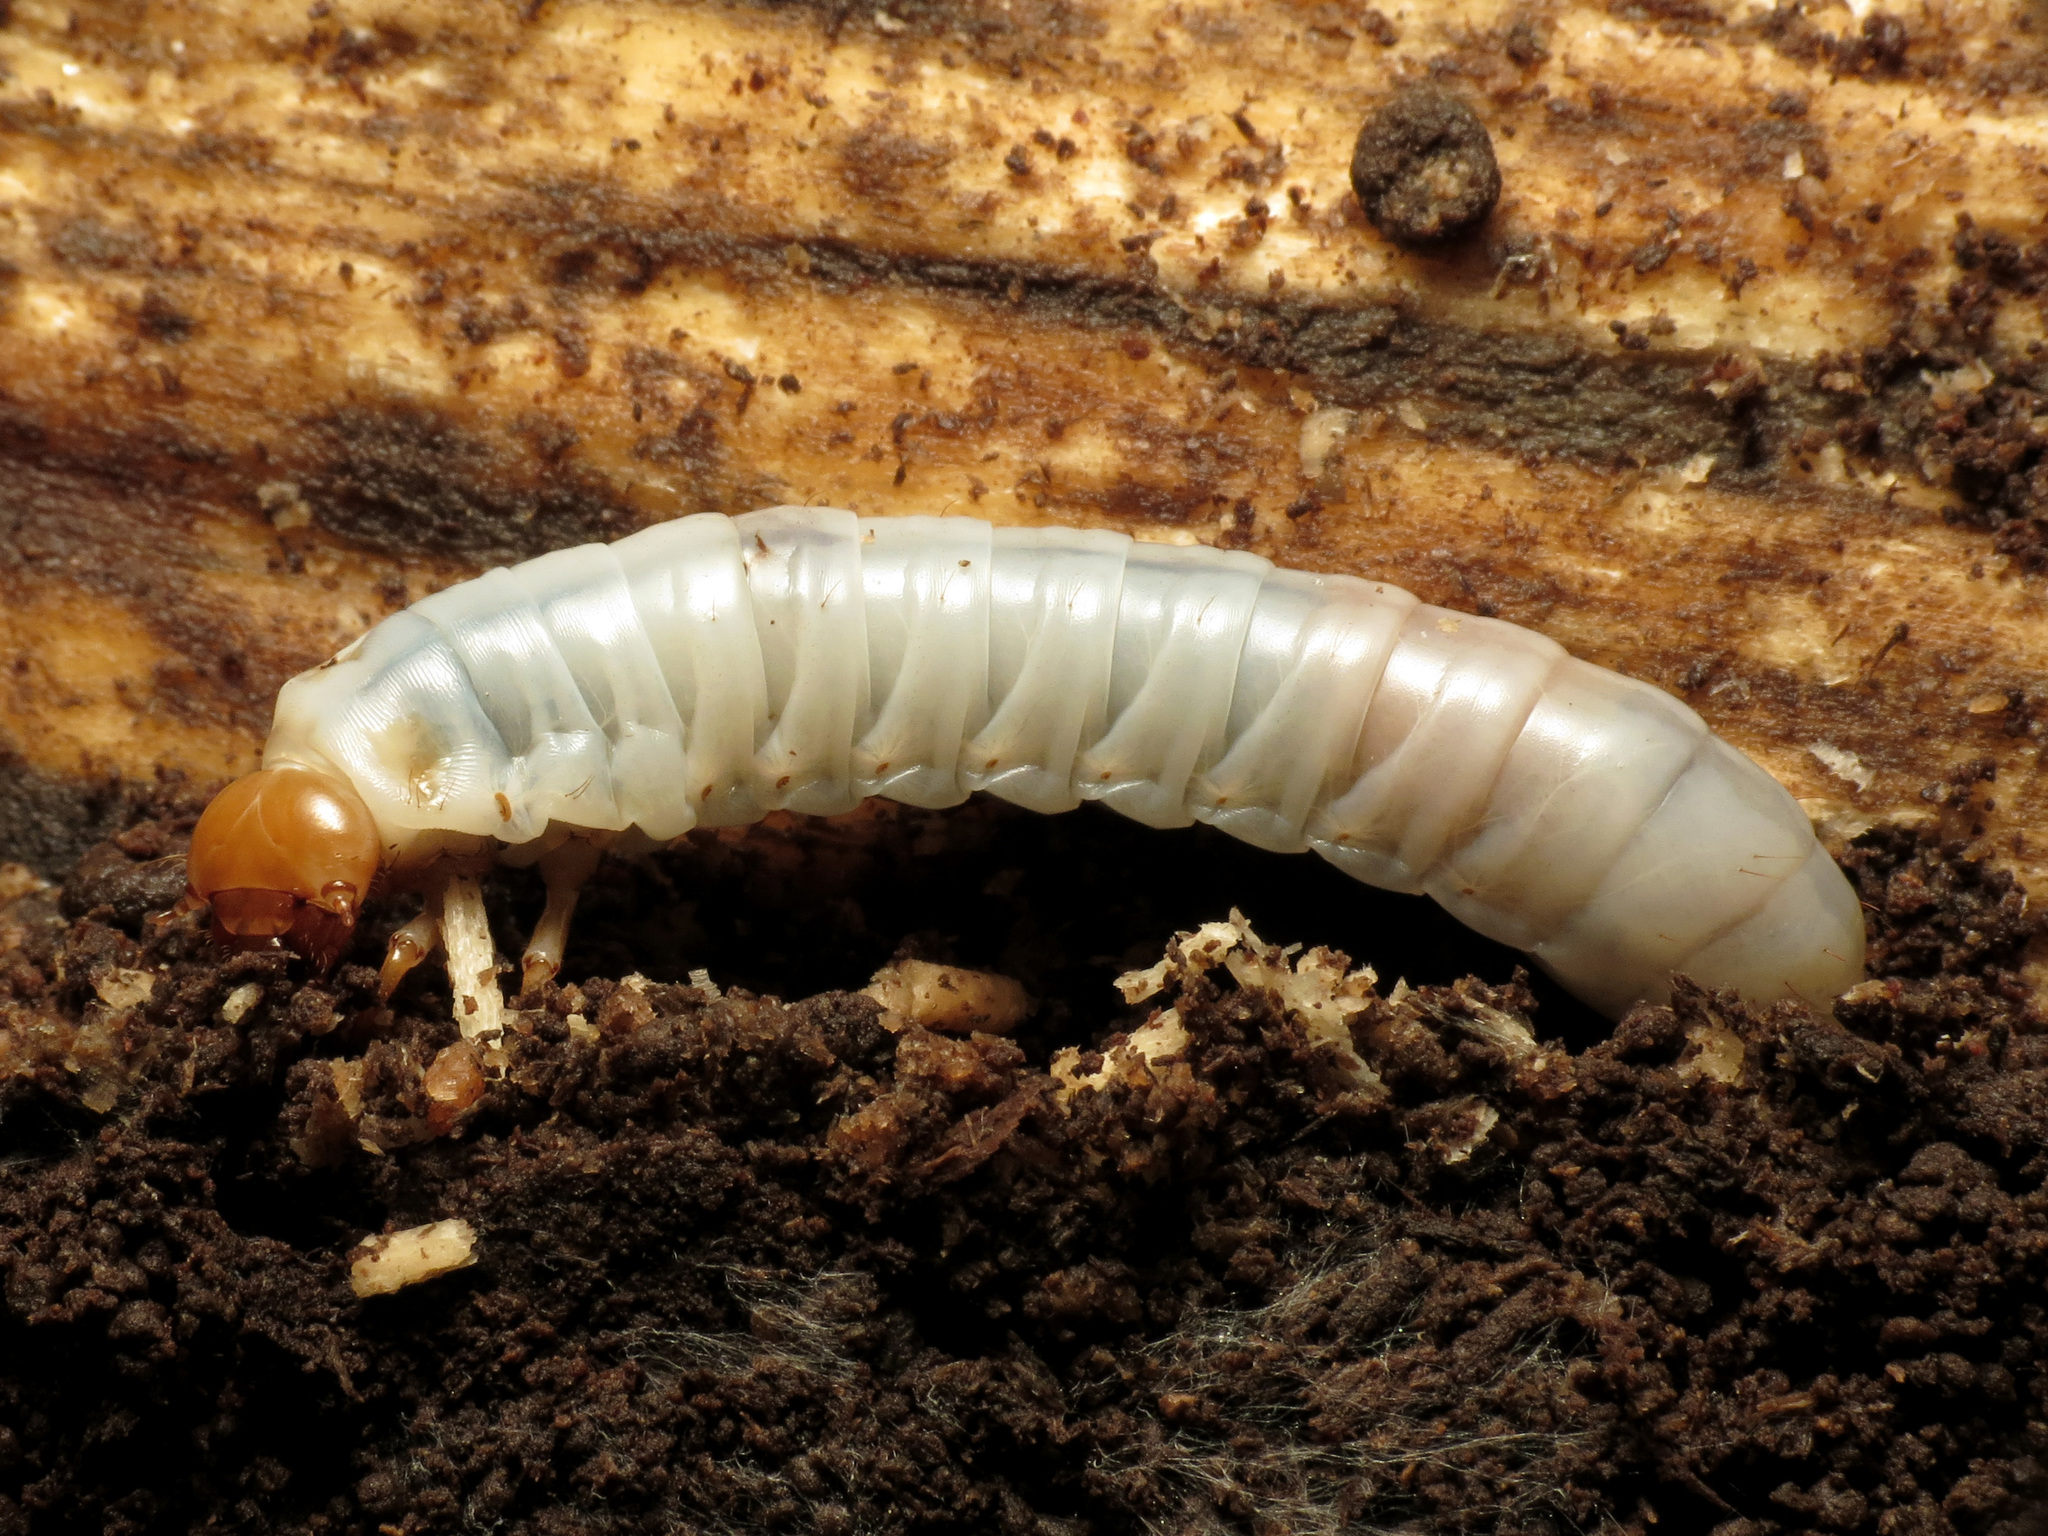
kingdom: Animalia
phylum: Arthropoda
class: Insecta
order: Coleoptera
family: Passalidae
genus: Odontotaenius
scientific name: Odontotaenius disjunctus
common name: Patent leather beetle
